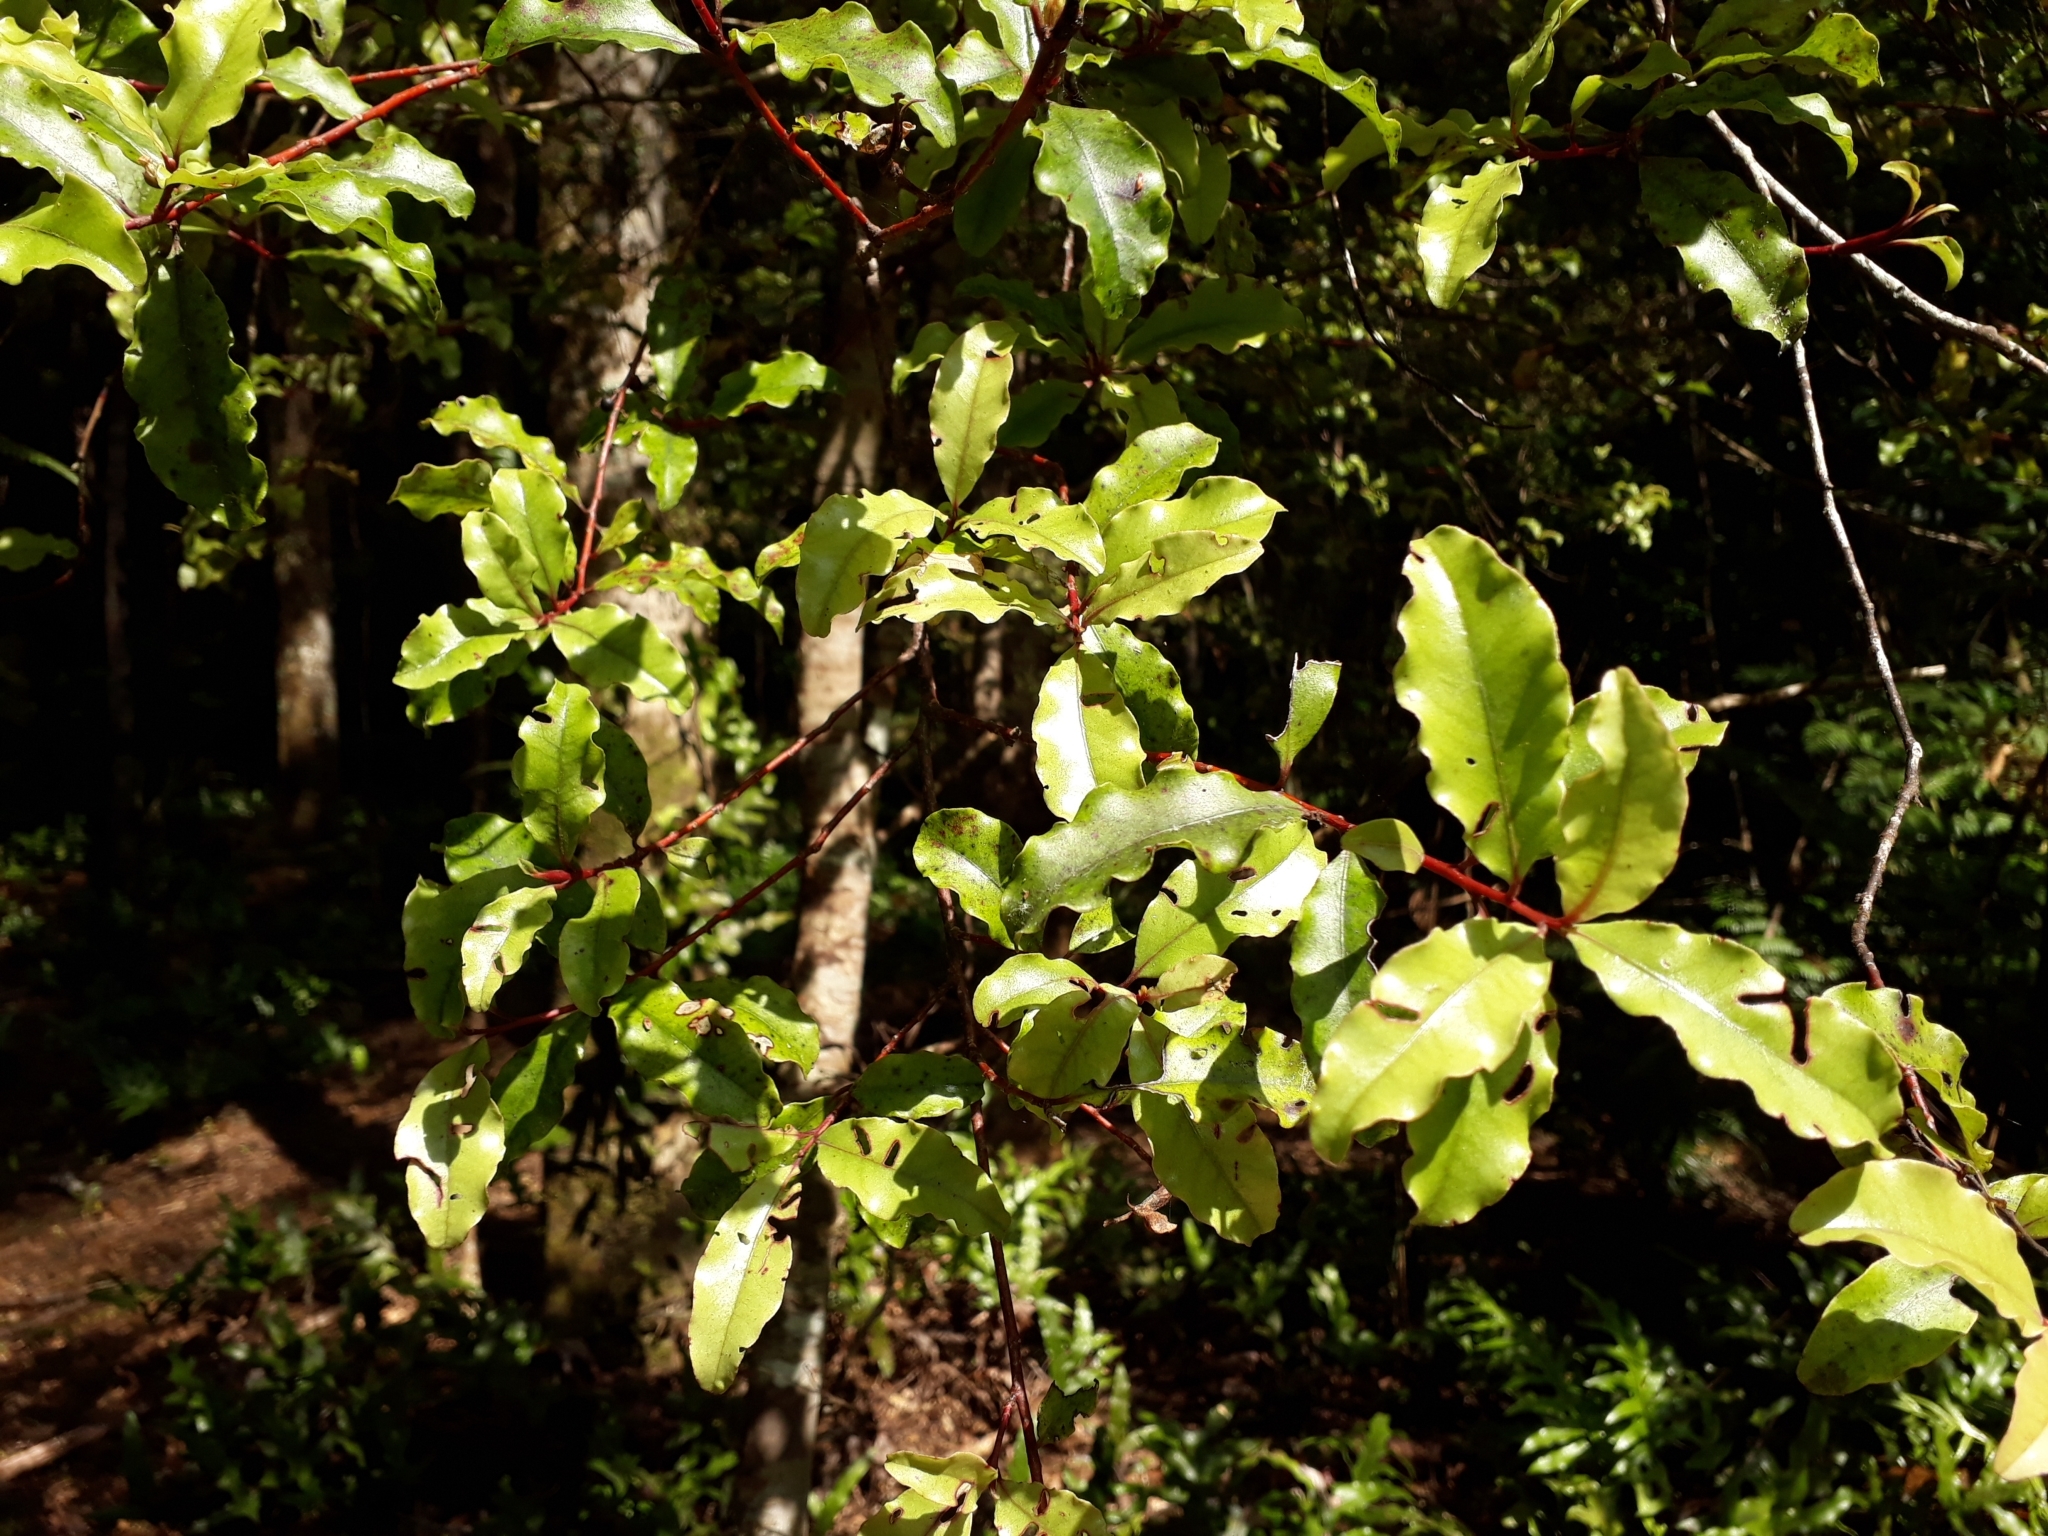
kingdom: Plantae
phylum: Tracheophyta
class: Magnoliopsida
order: Ericales
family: Primulaceae
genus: Myrsine
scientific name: Myrsine australis
